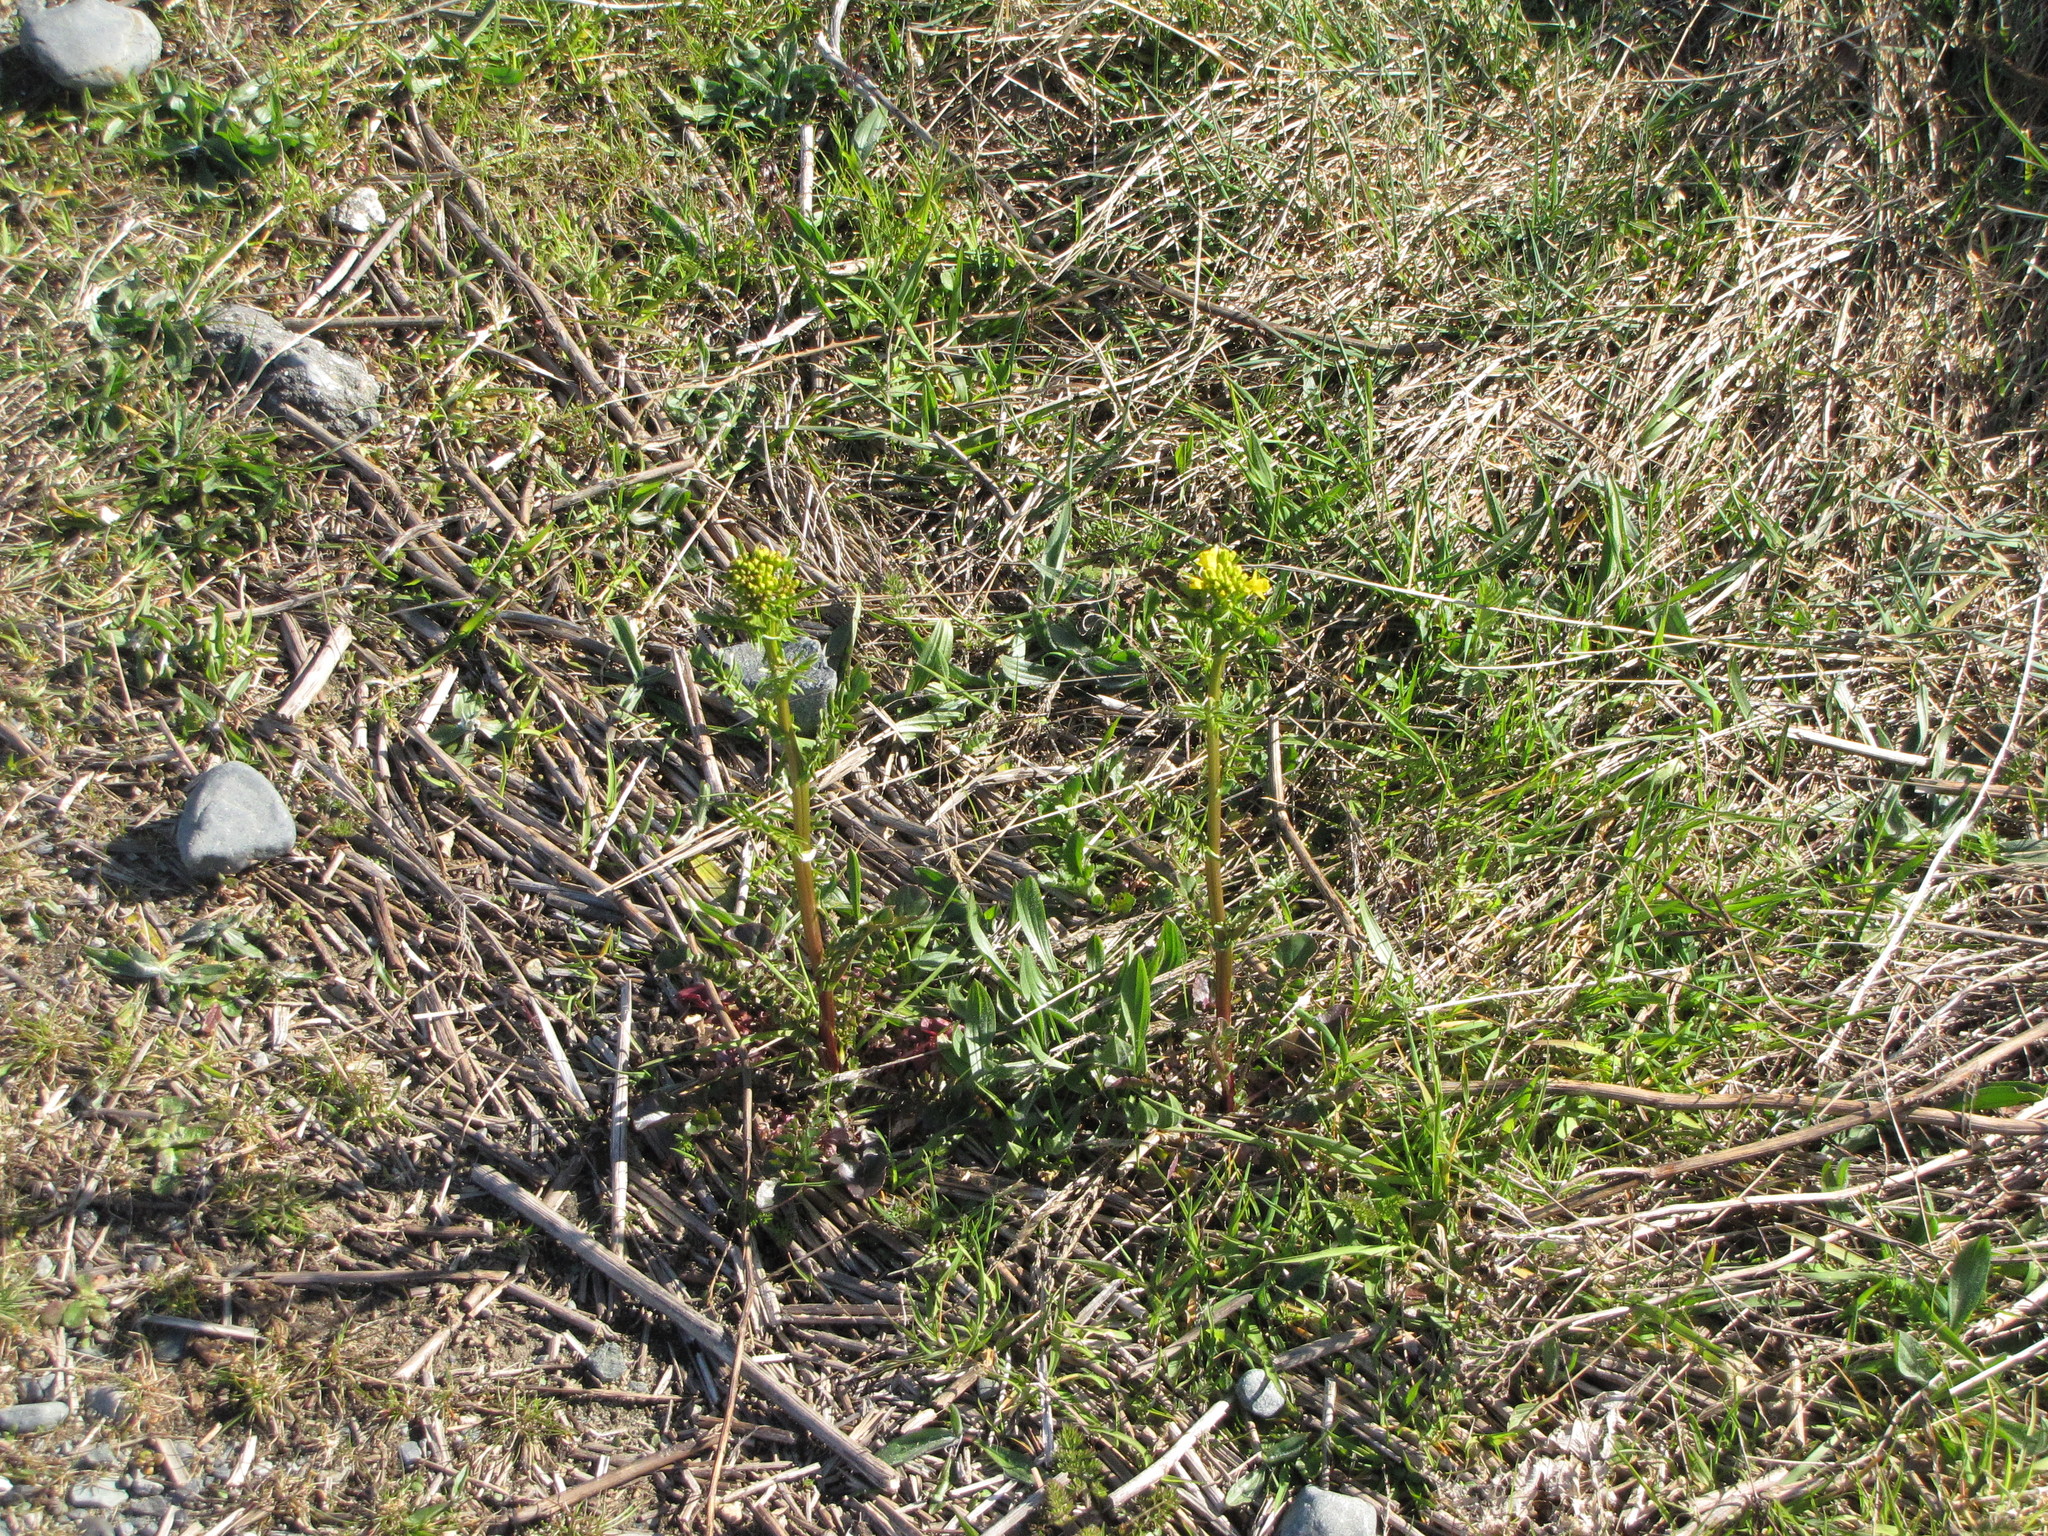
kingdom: Plantae
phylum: Tracheophyta
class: Magnoliopsida
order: Brassicales
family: Brassicaceae
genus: Barbarea
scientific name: Barbarea verna
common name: American cress
